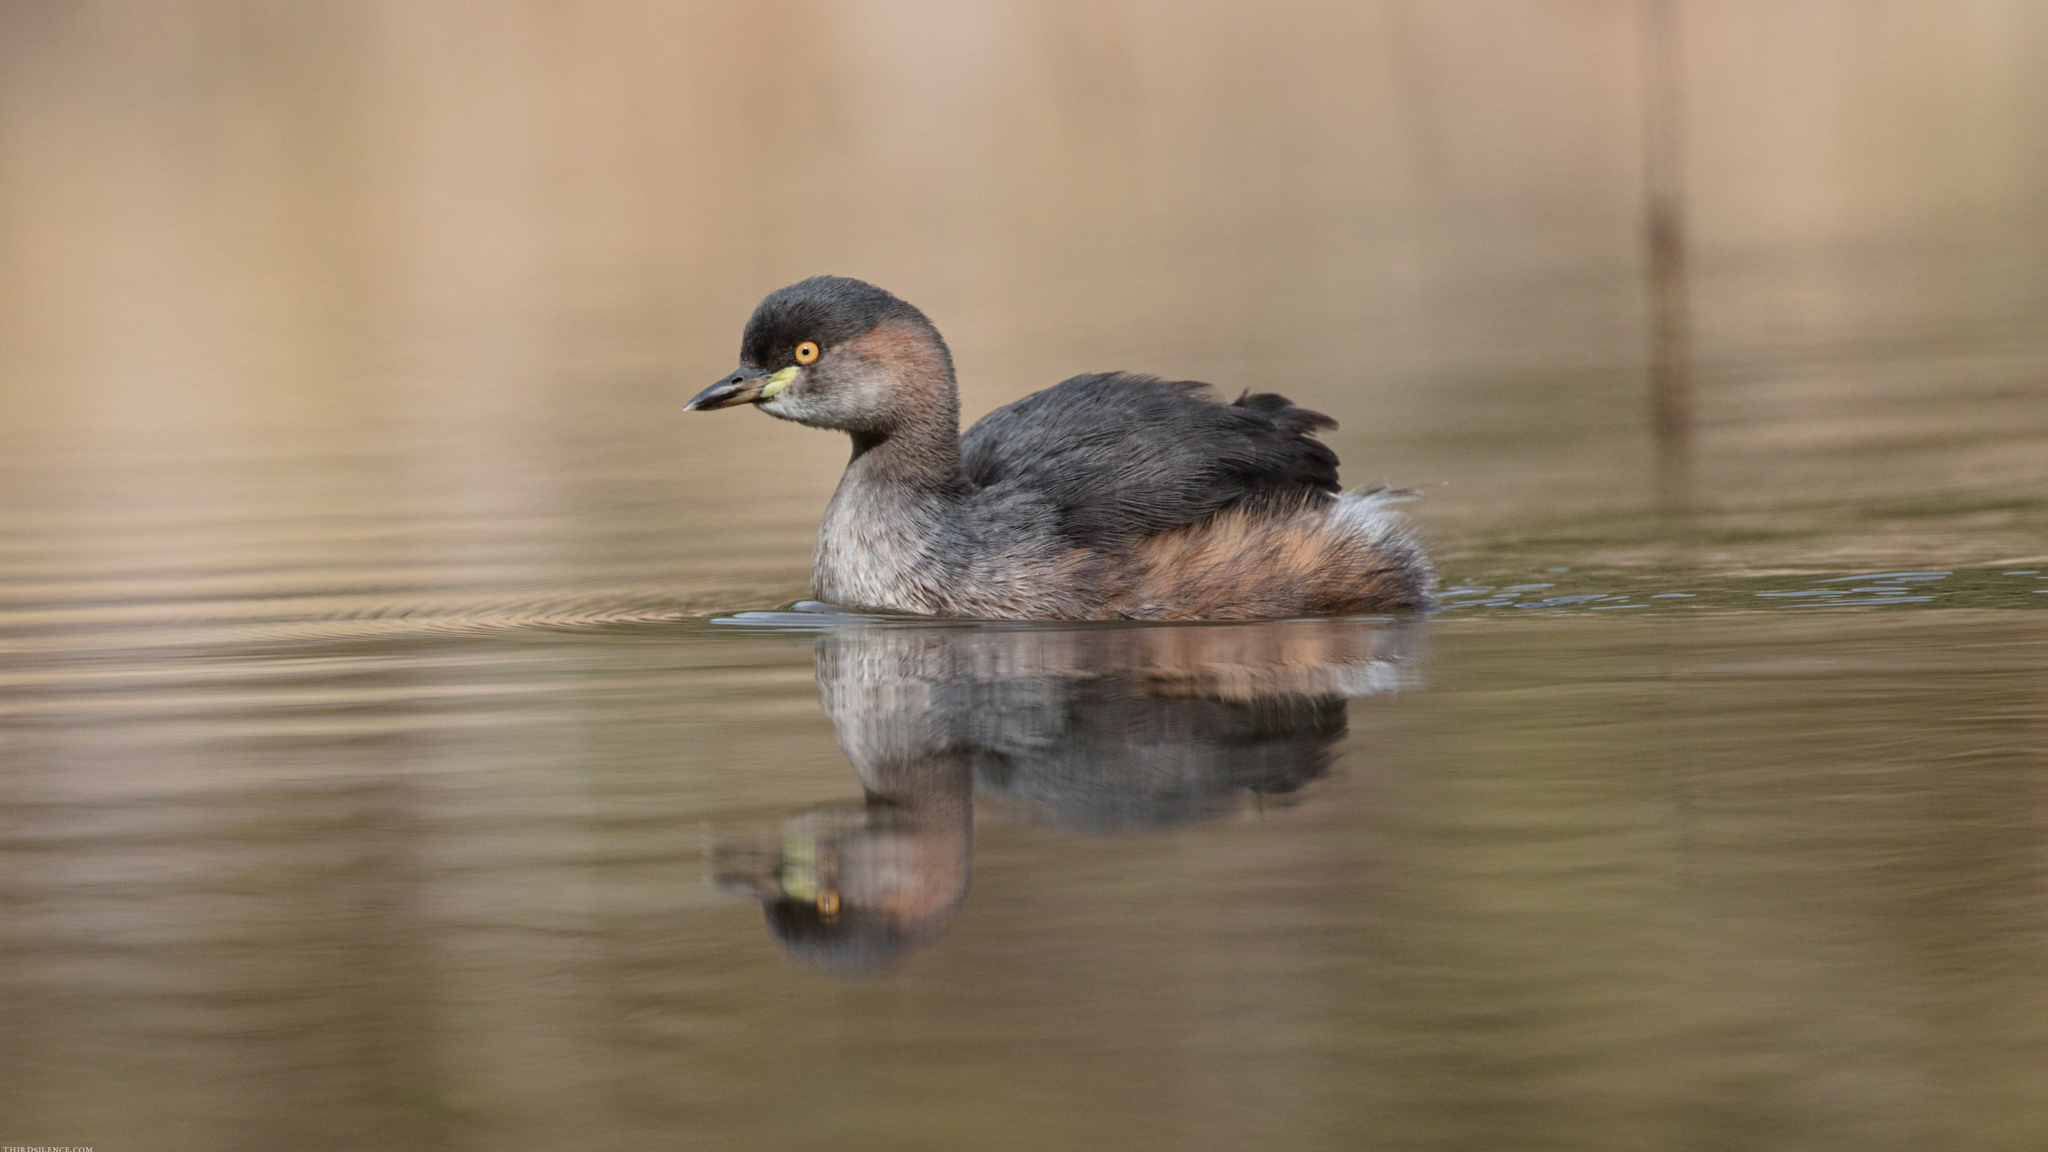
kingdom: Animalia
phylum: Chordata
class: Aves
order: Podicipediformes
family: Podicipedidae
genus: Tachybaptus
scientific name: Tachybaptus novaehollandiae
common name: Australasian grebe
